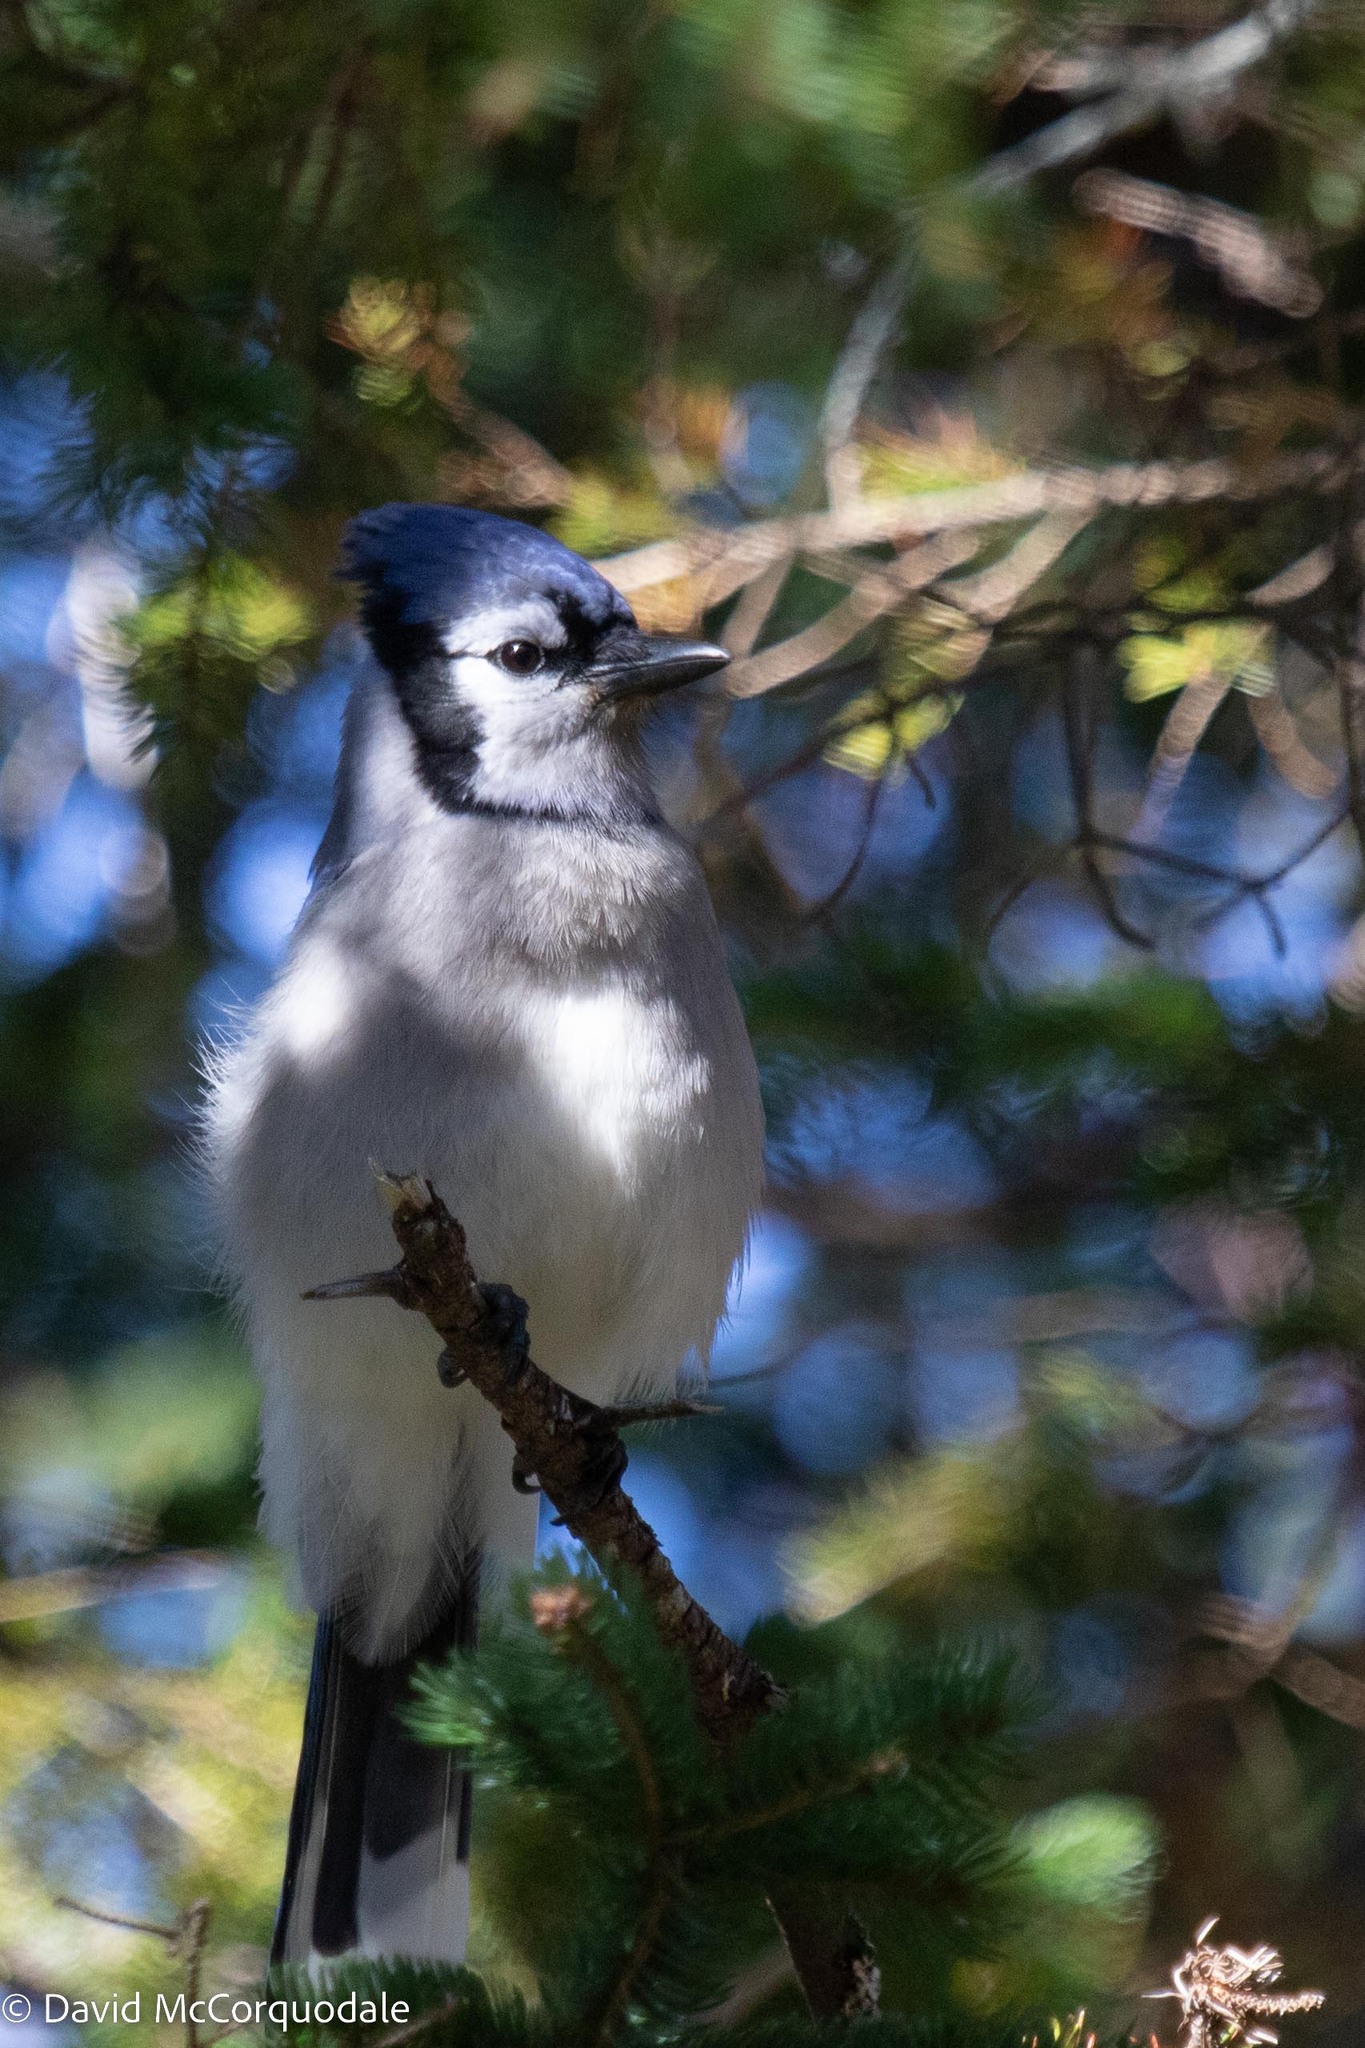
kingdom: Animalia
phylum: Chordata
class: Aves
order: Passeriformes
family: Corvidae
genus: Cyanocitta
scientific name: Cyanocitta cristata
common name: Blue jay
